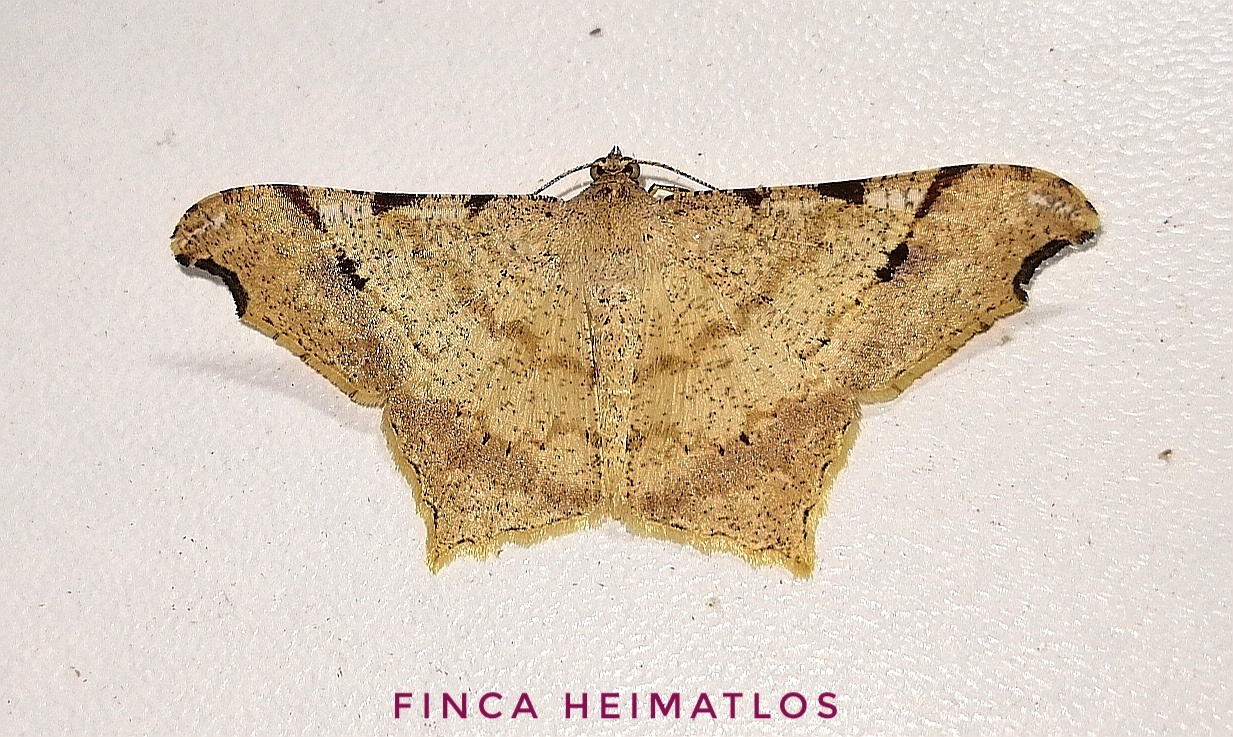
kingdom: Animalia
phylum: Arthropoda
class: Insecta
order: Lepidoptera
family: Geometridae
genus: Macaria
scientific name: Macaria achetata
